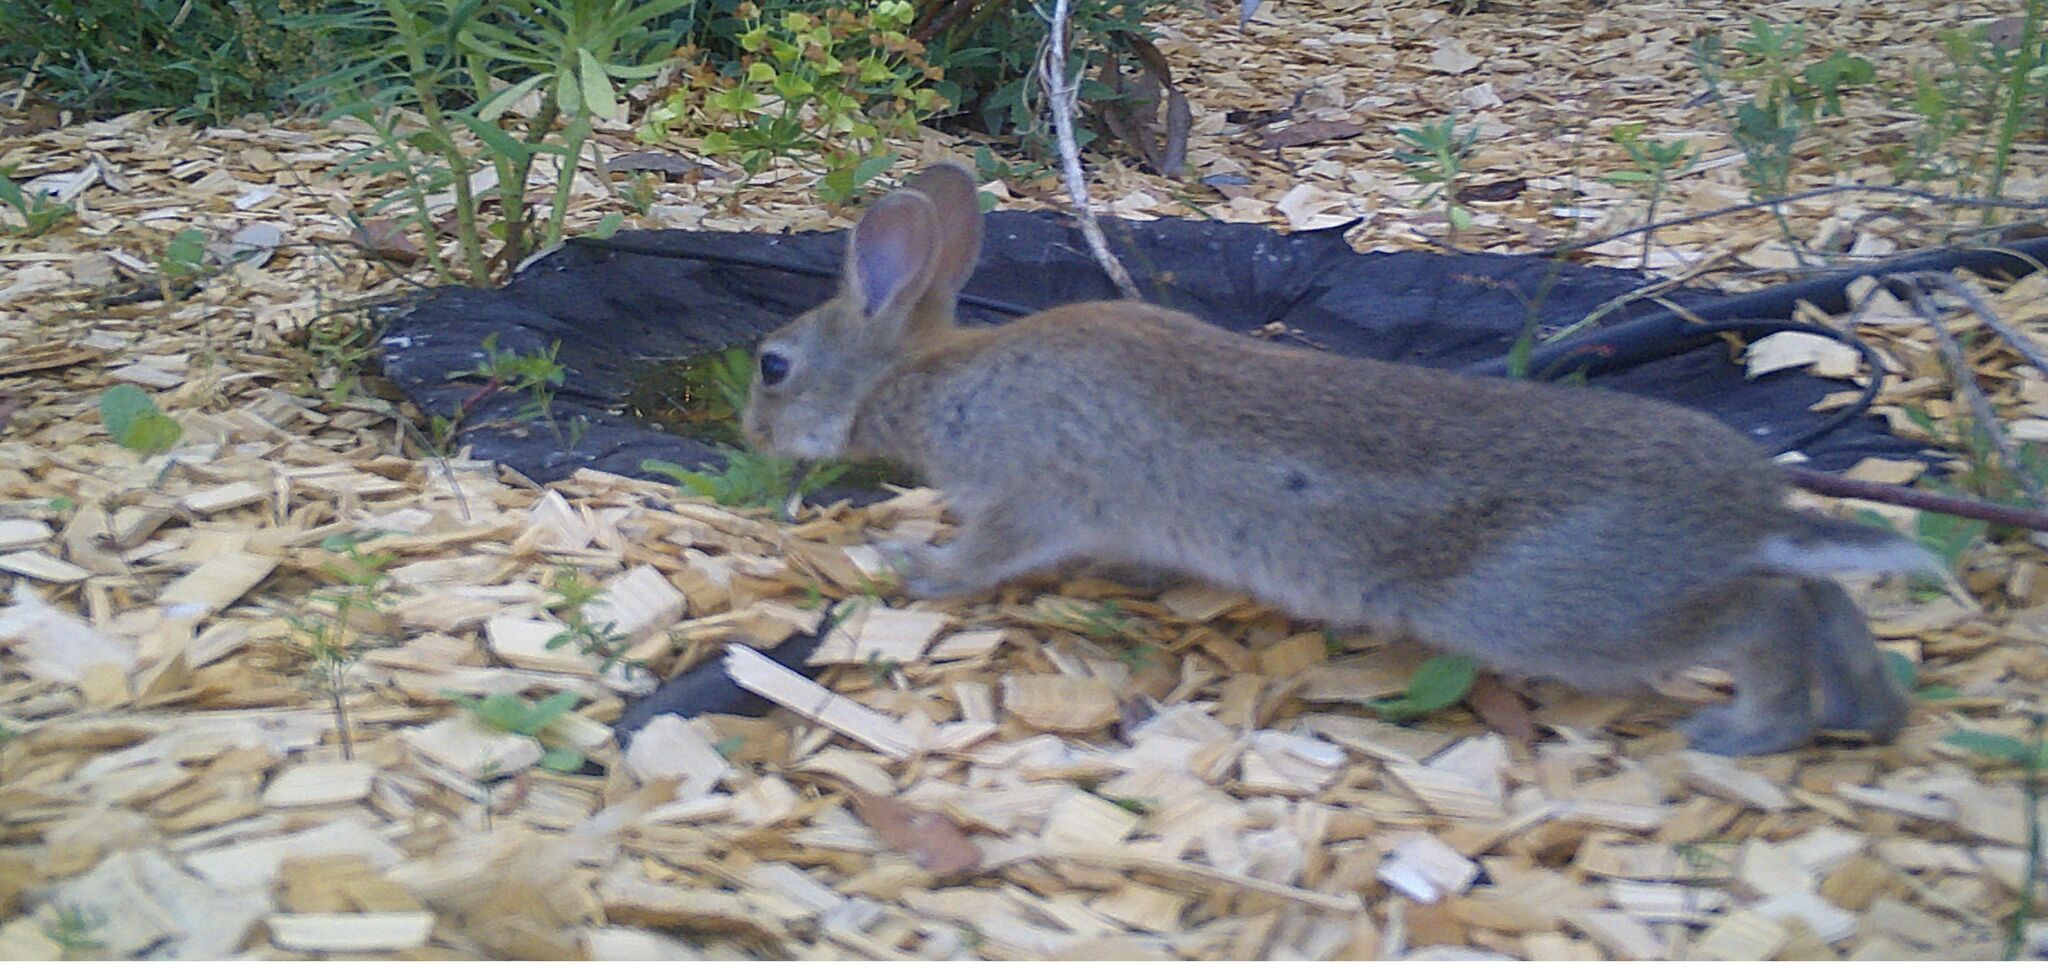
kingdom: Animalia
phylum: Chordata
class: Mammalia
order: Lagomorpha
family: Leporidae
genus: Oryctolagus
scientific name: Oryctolagus cuniculus
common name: European rabbit
